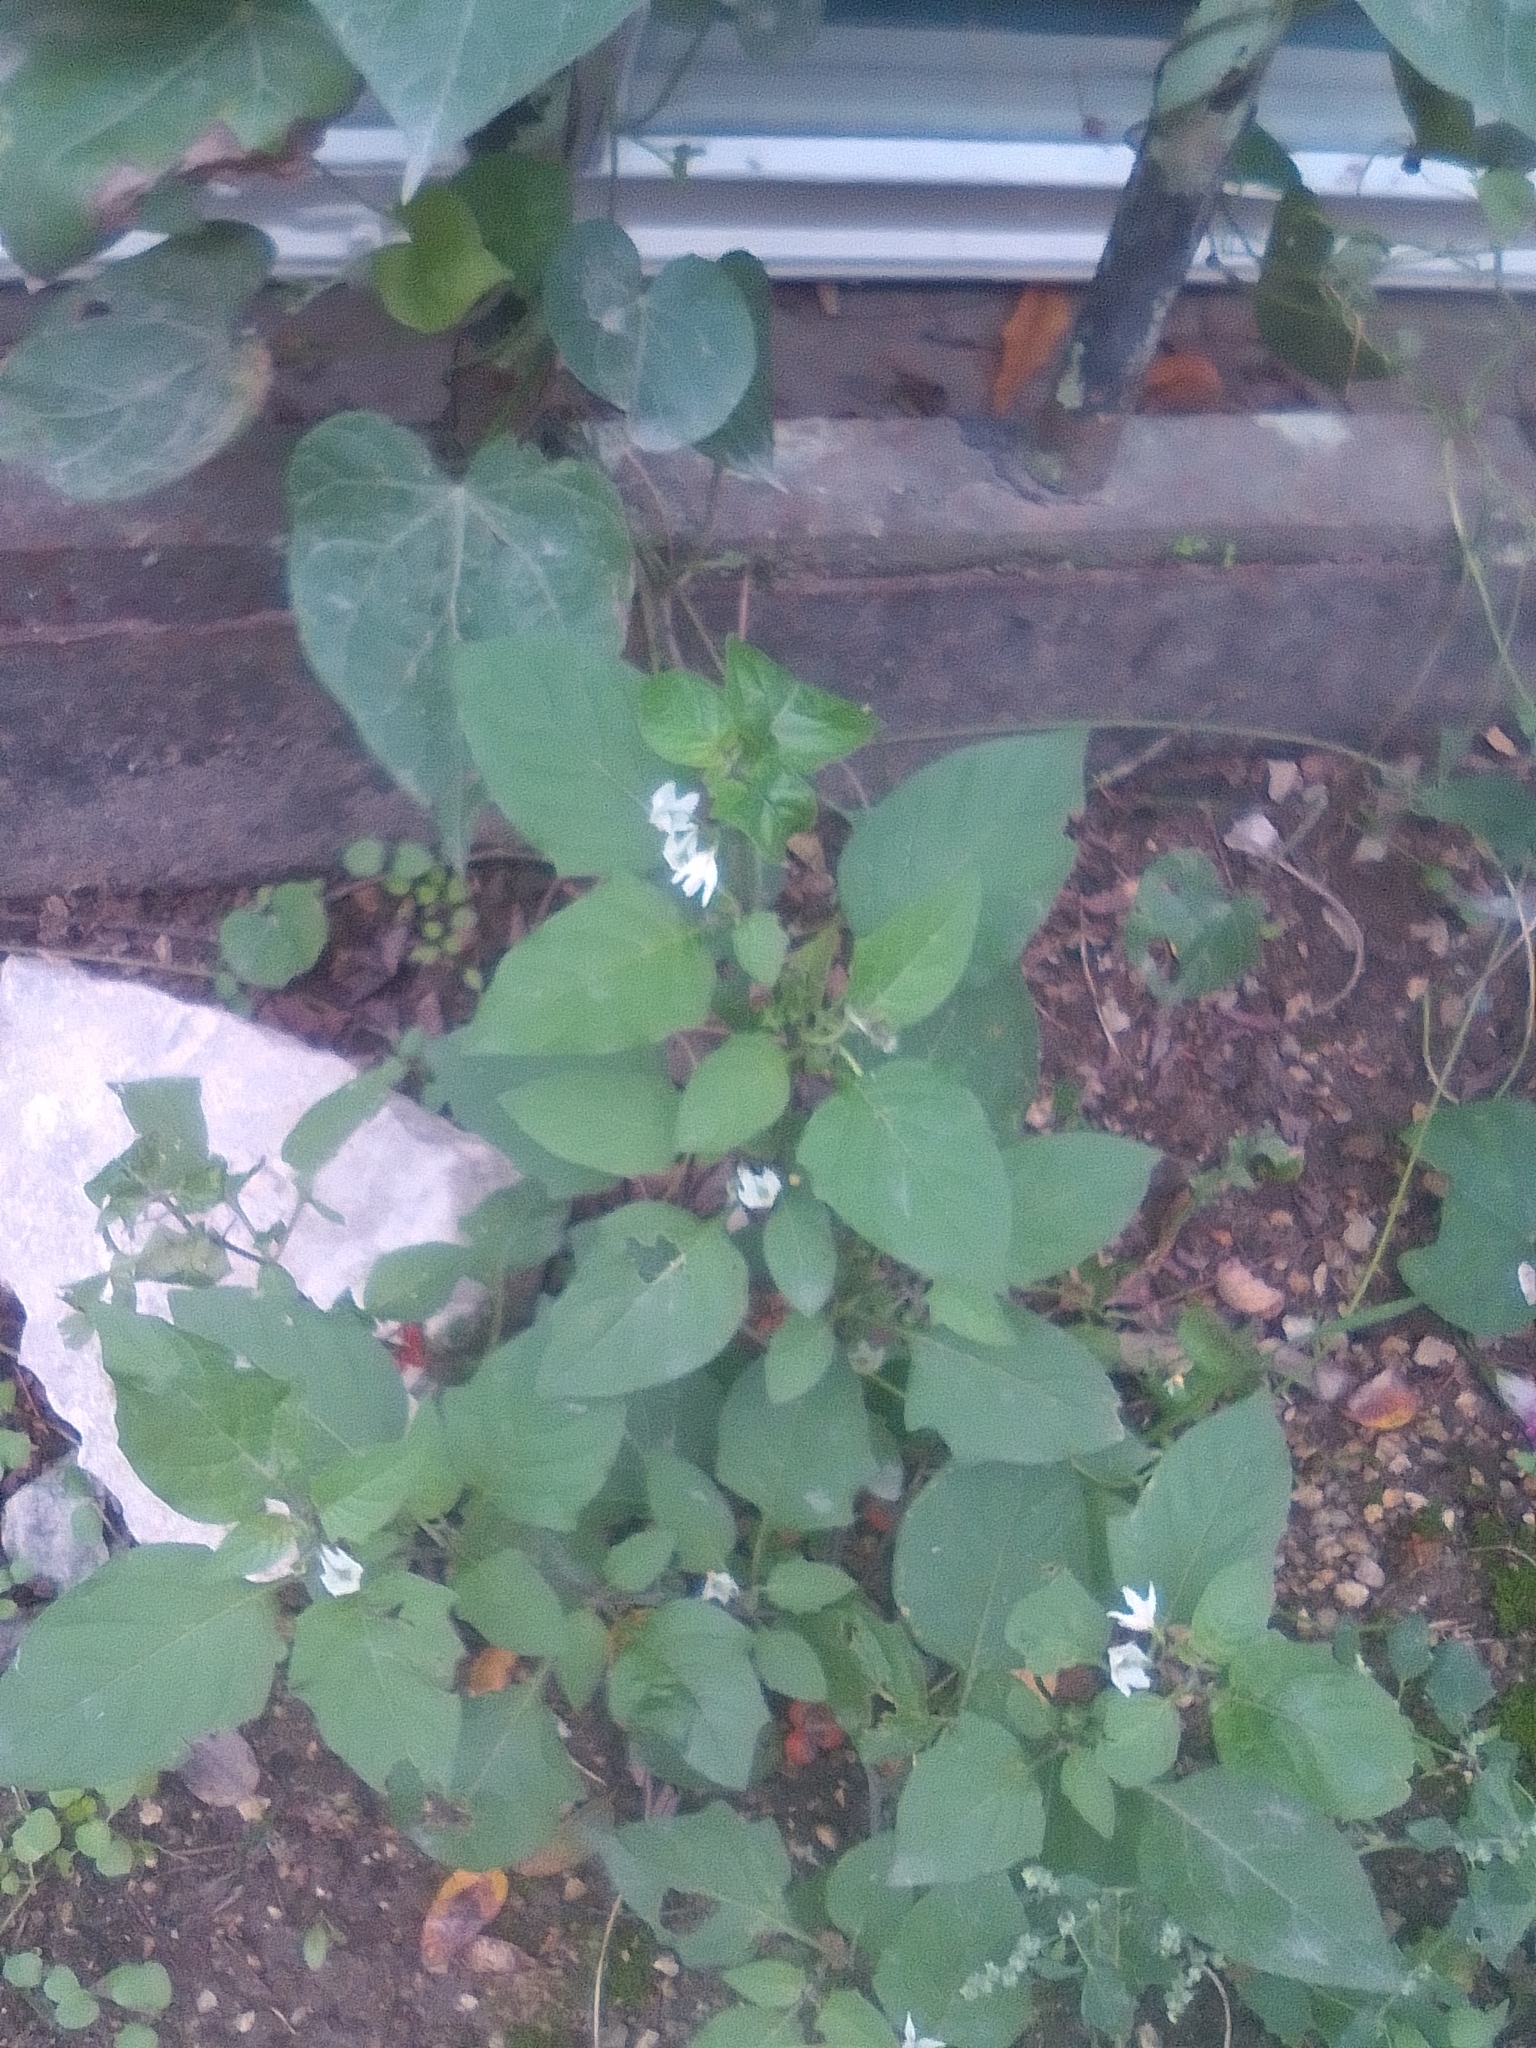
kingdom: Plantae
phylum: Tracheophyta
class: Magnoliopsida
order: Solanales
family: Solanaceae
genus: Solanum
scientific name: Solanum nigrum
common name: Black nightshade
